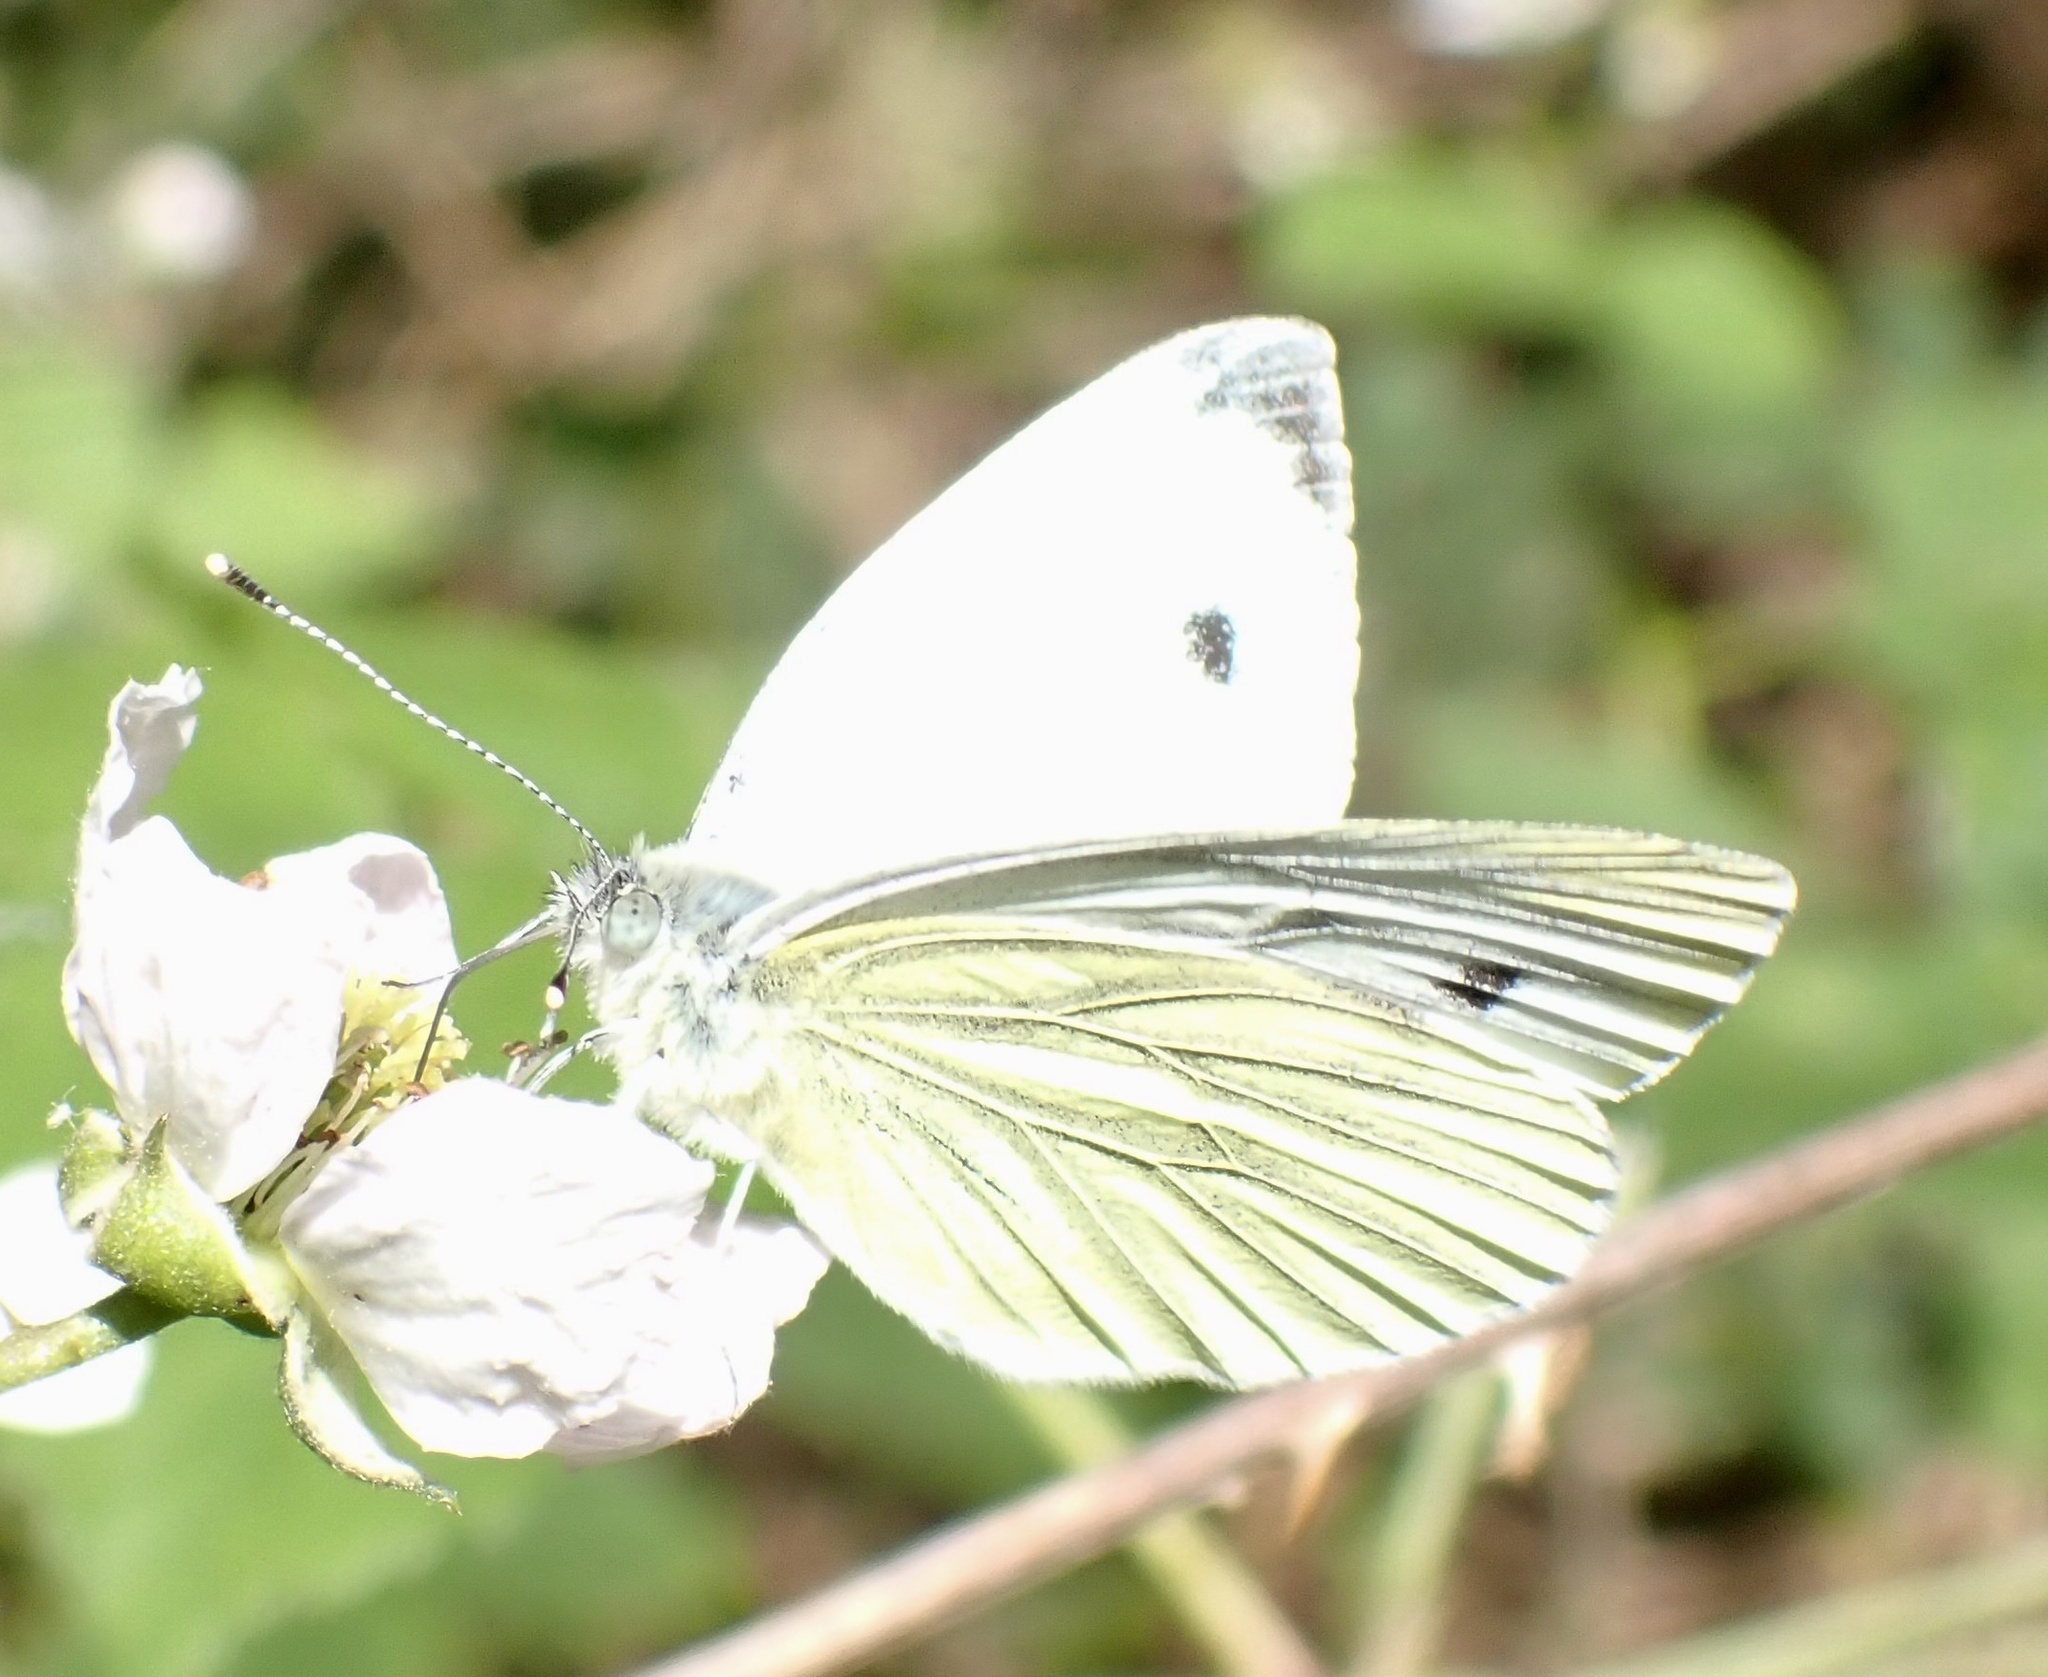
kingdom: Animalia
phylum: Arthropoda
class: Insecta
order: Lepidoptera
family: Pieridae
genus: Pieris
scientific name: Pieris napi
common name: Green-veined white
